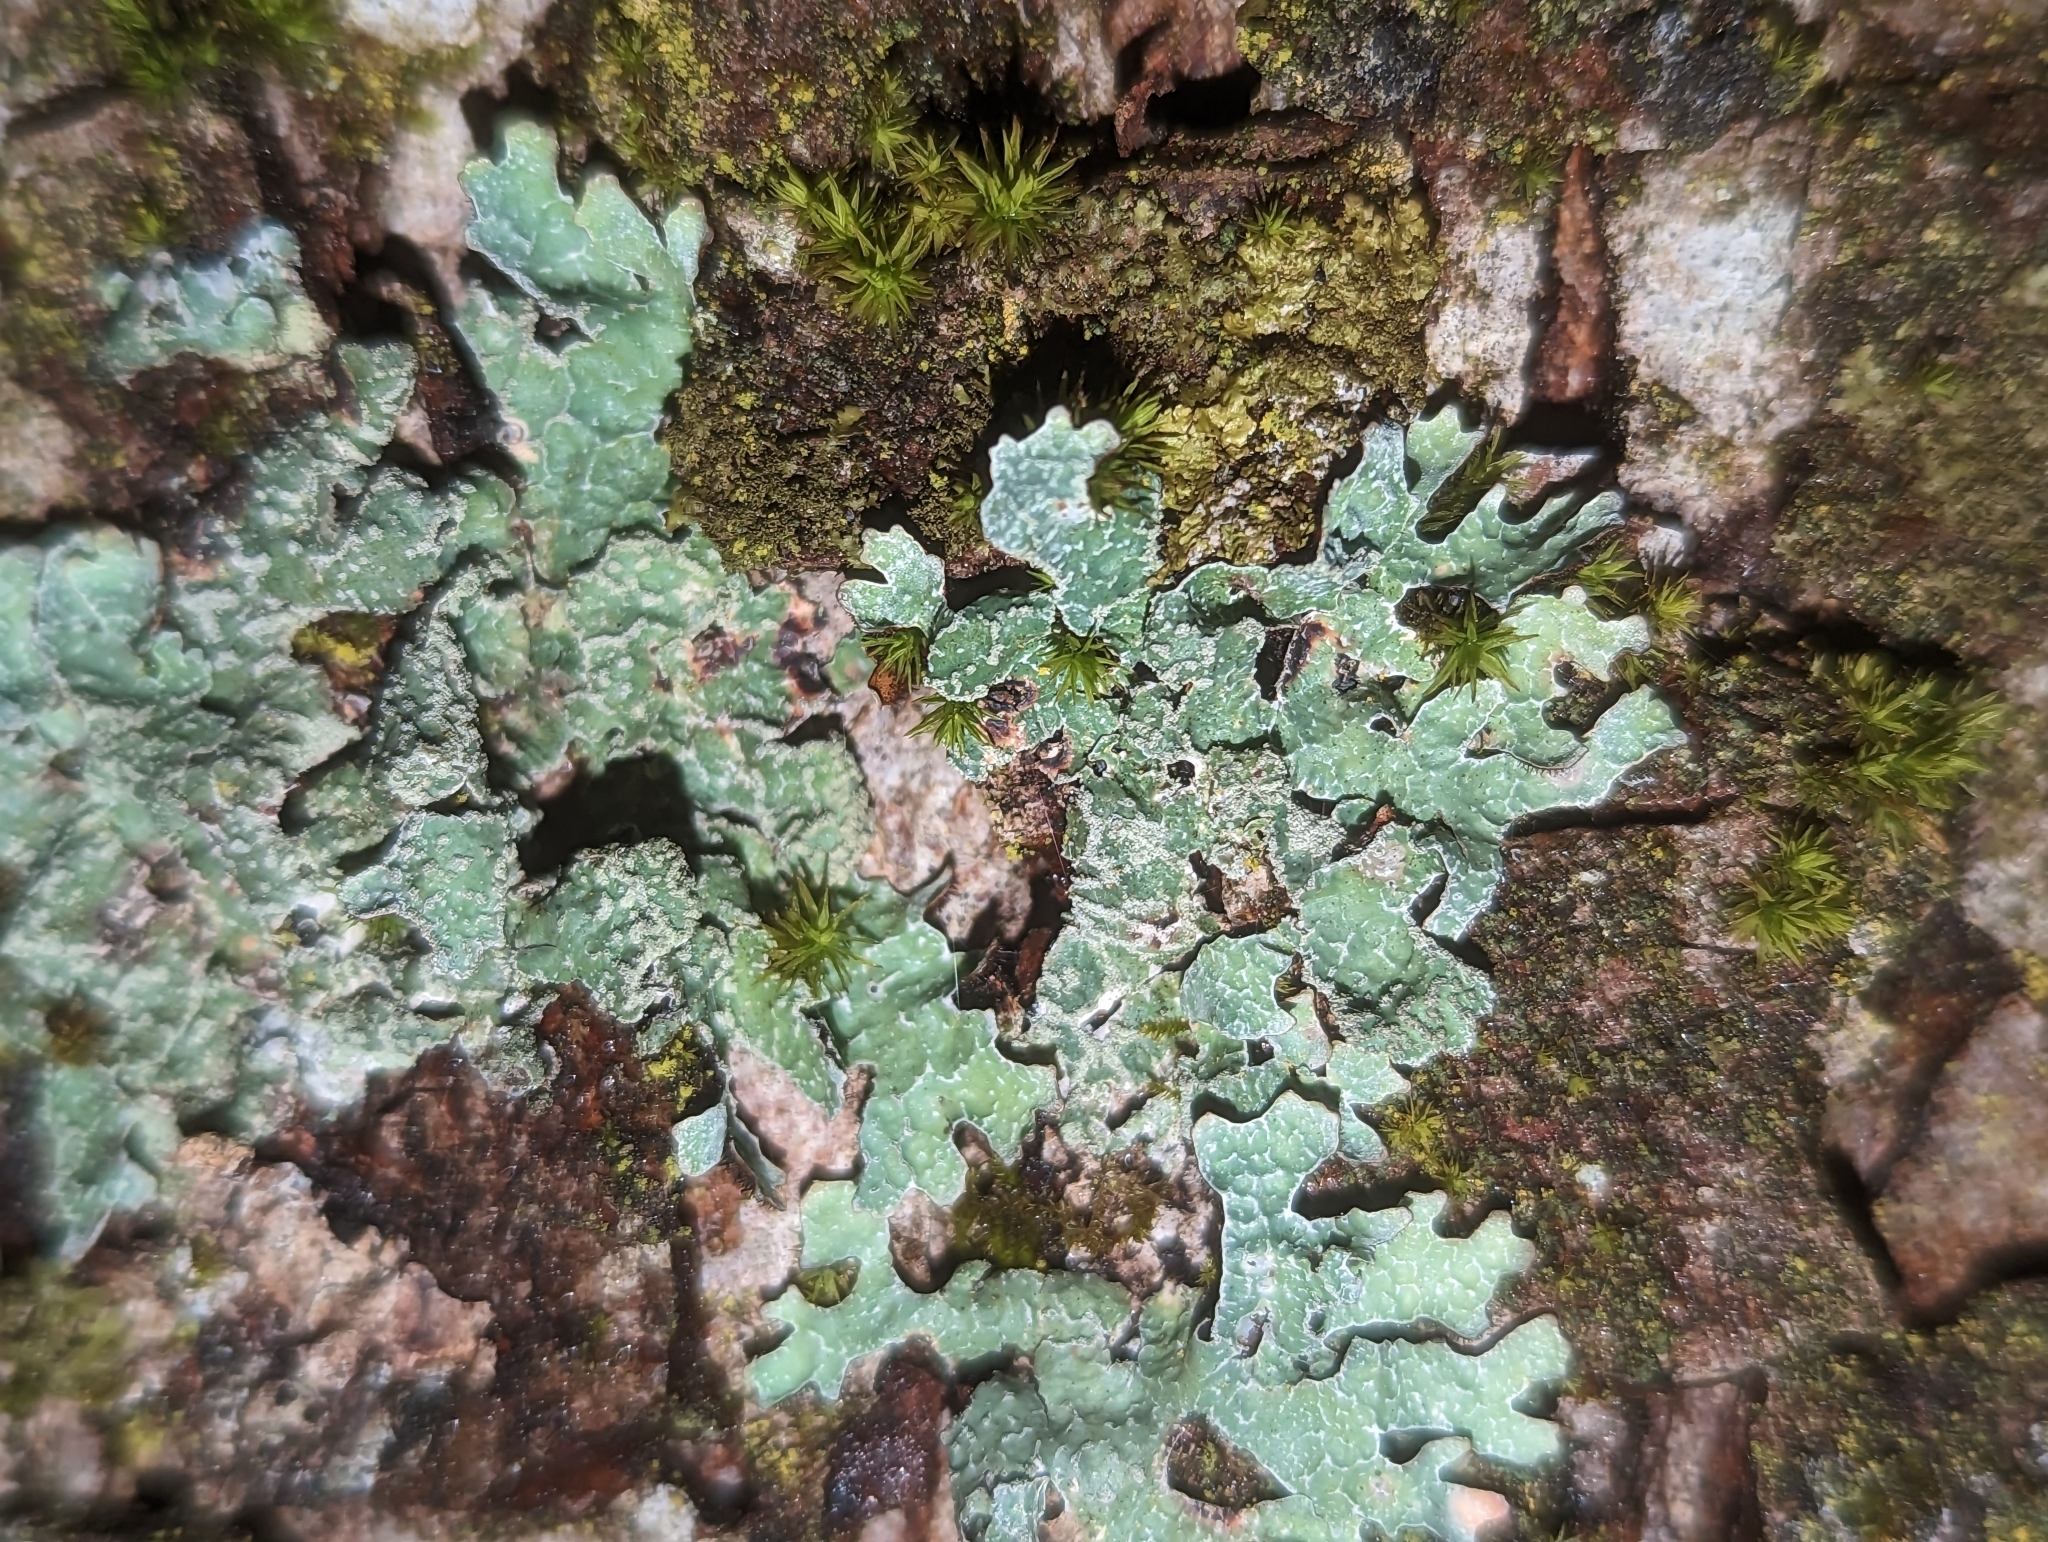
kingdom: Fungi
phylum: Ascomycota
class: Lecanoromycetes
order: Lecanorales
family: Parmeliaceae
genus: Parmelia
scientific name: Parmelia sulcata
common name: Netted shield lichen
